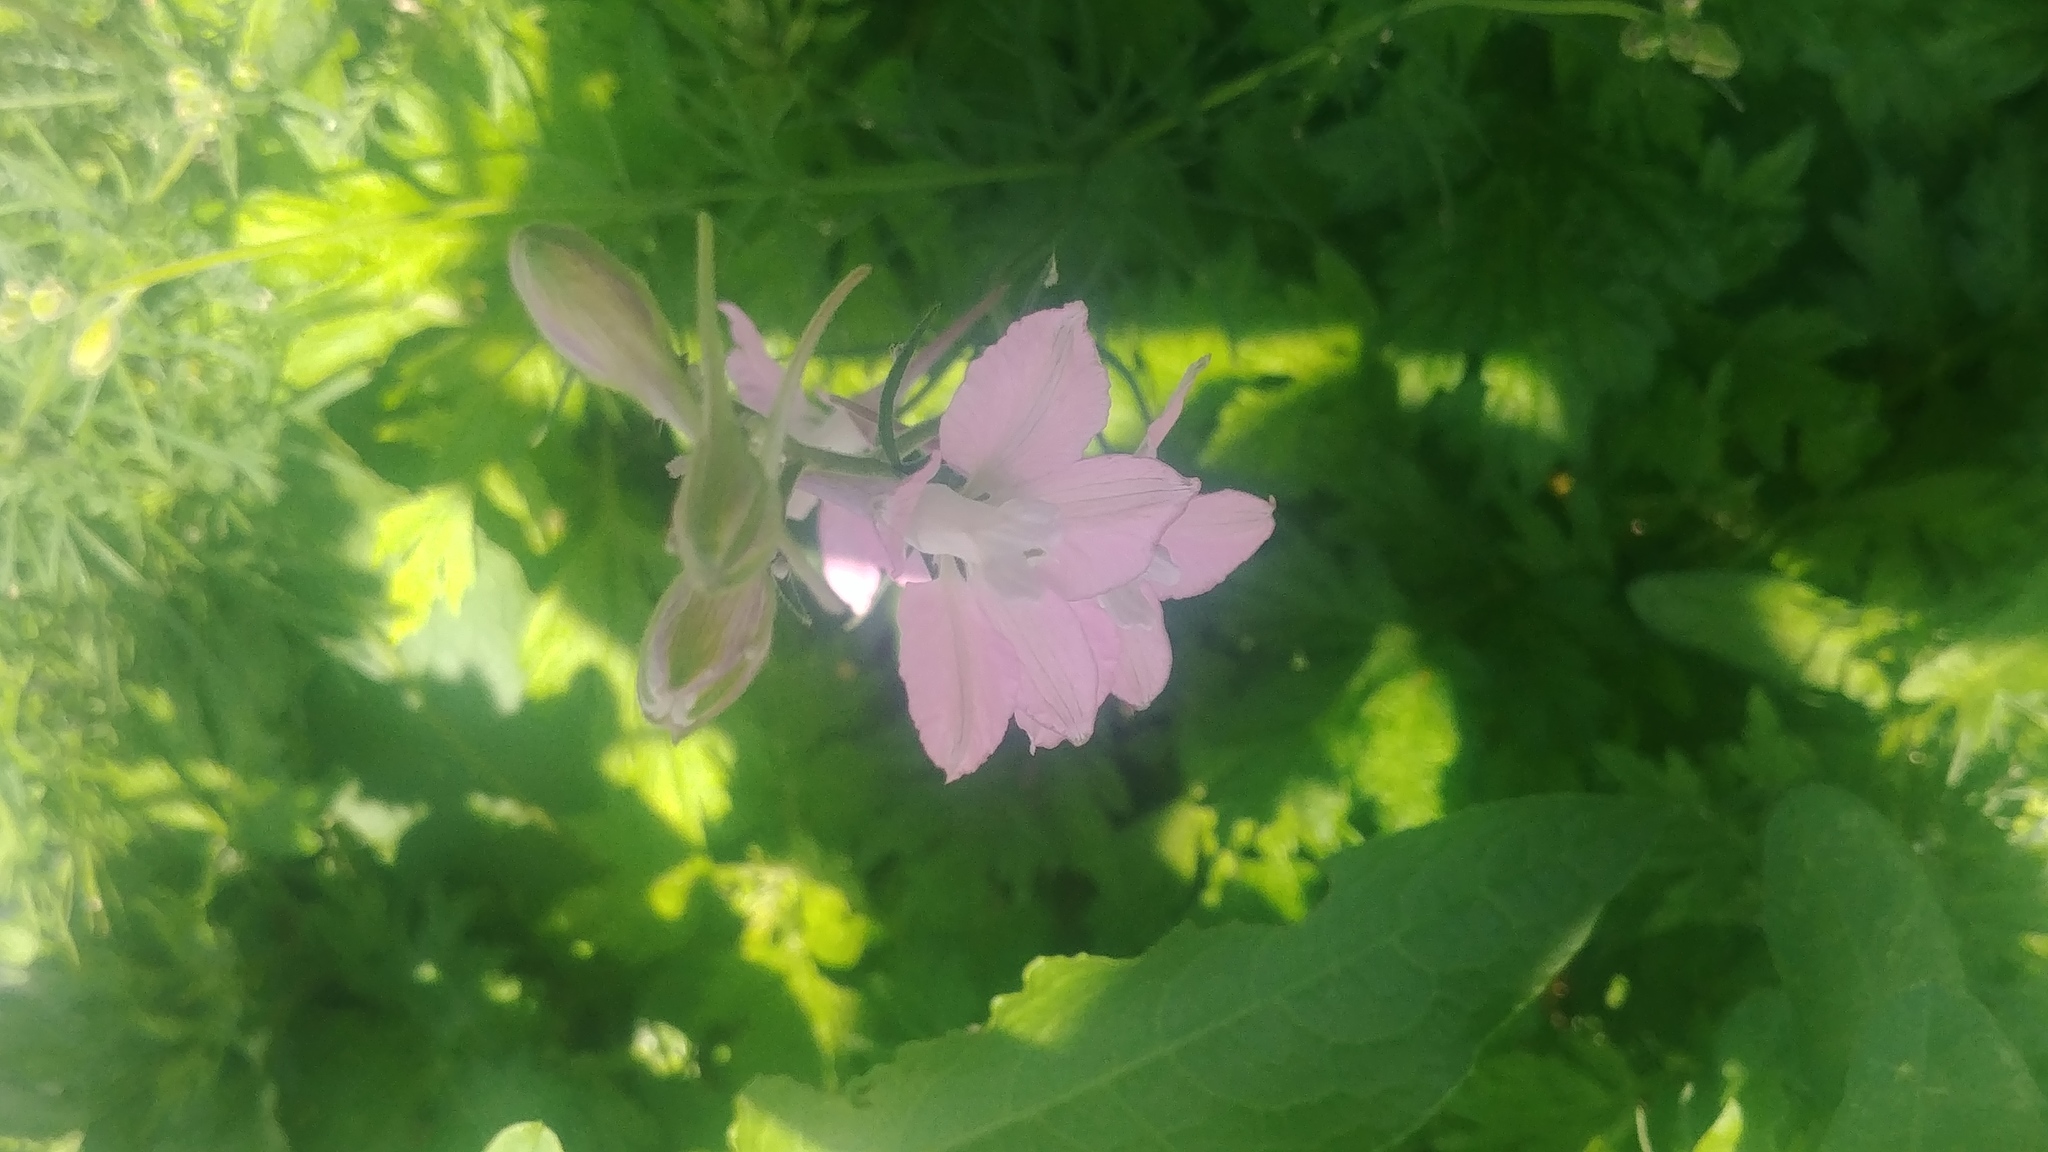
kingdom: Plantae
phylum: Tracheophyta
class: Magnoliopsida
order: Ranunculales
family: Ranunculaceae
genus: Delphinium
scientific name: Delphinium ajacis
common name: Doubtful knight's-spur
